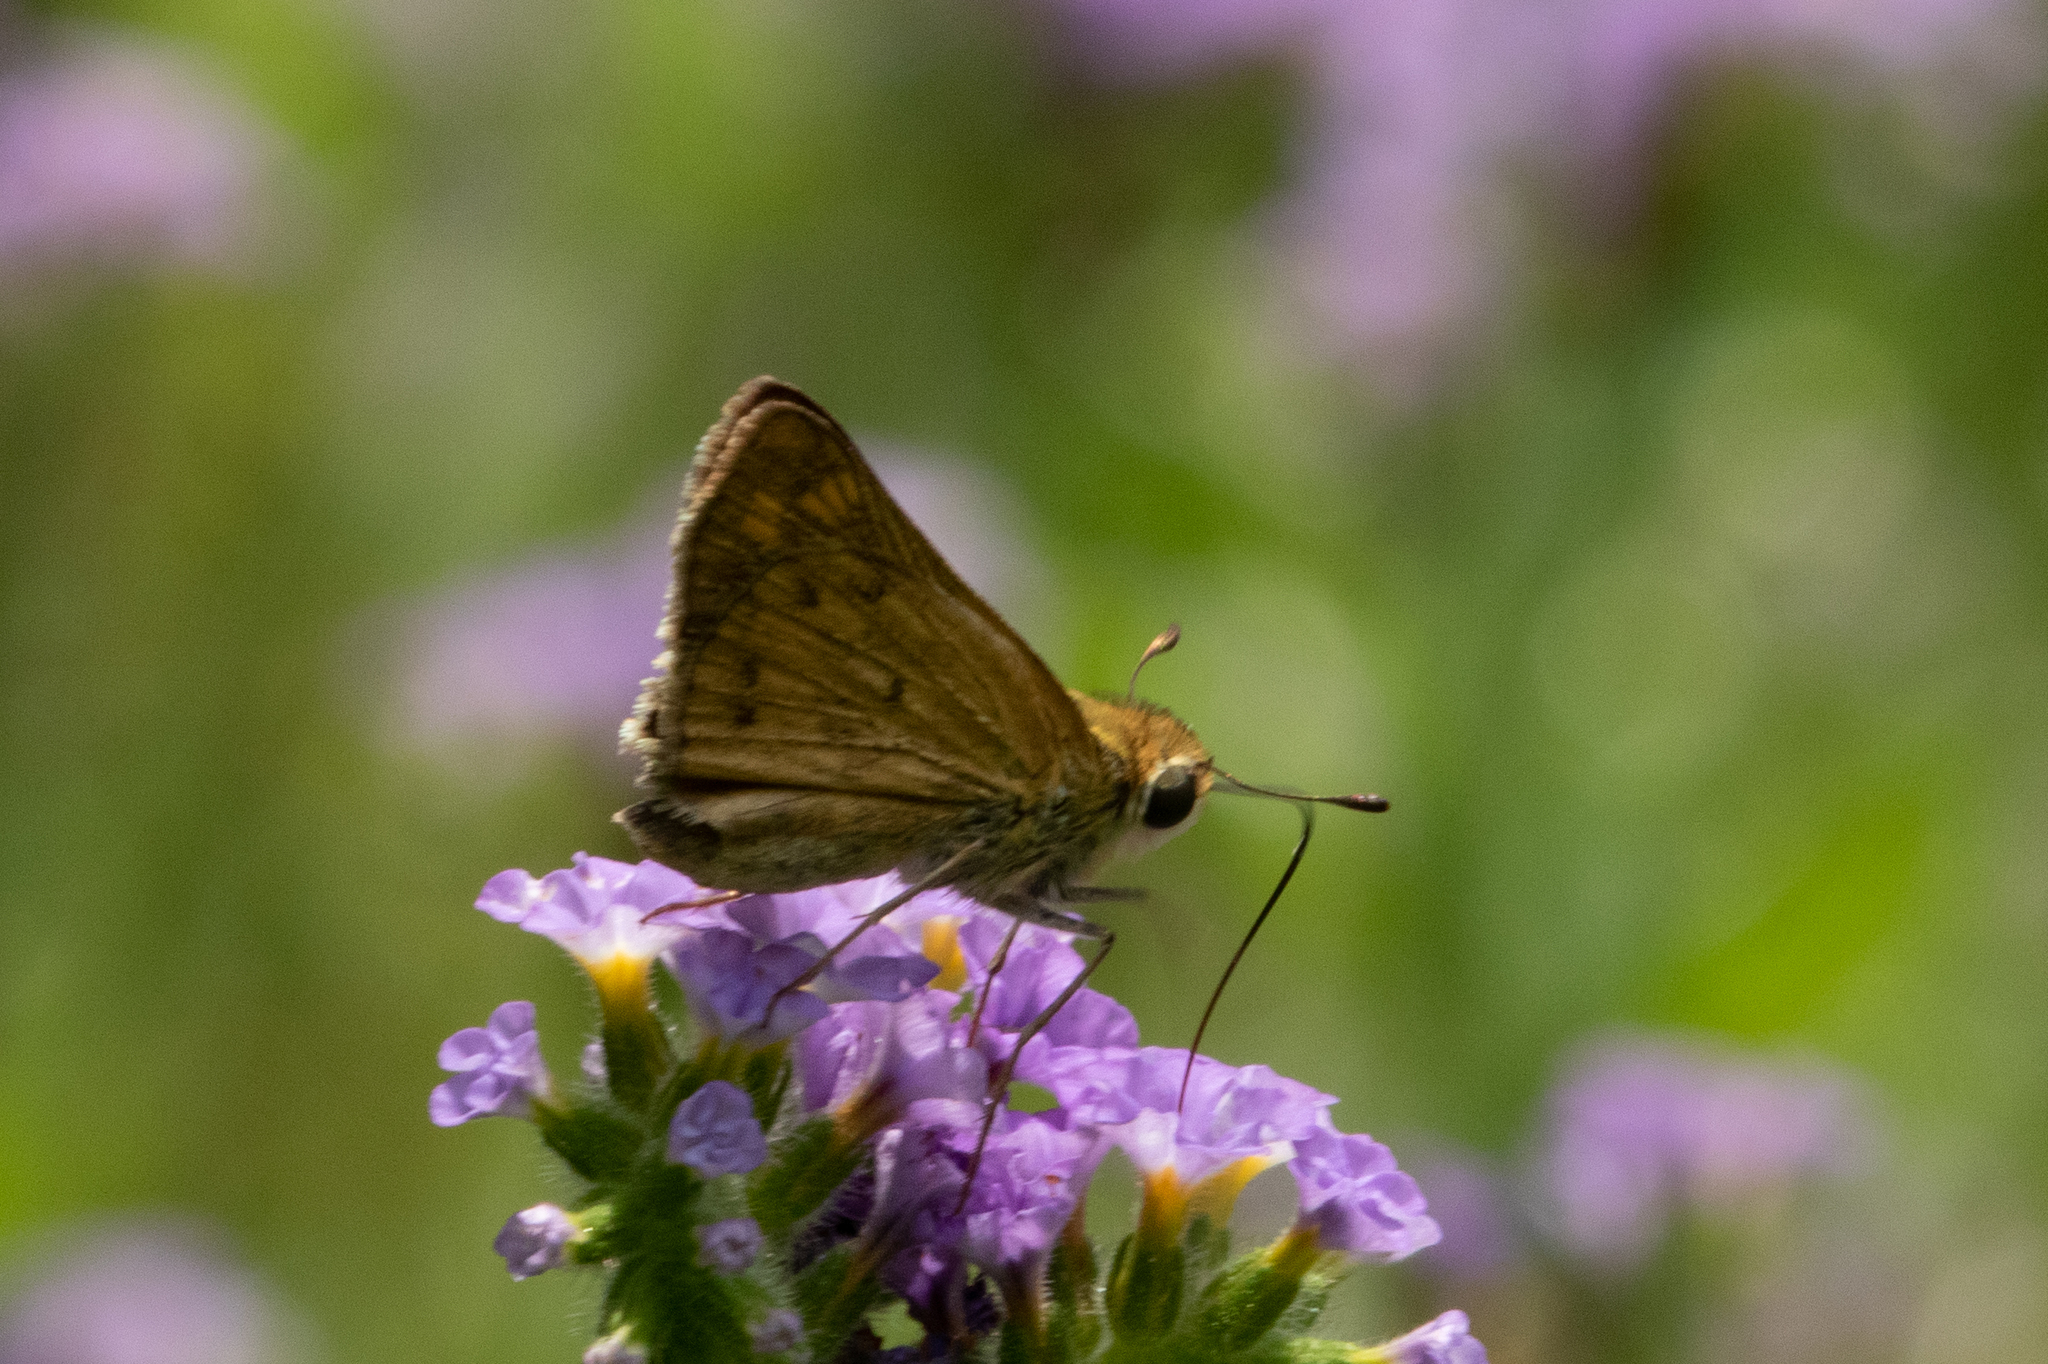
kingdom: Animalia
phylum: Arthropoda
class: Insecta
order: Lepidoptera
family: Hesperiidae
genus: Hylephila
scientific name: Hylephila phyleus
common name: Fiery skipper
